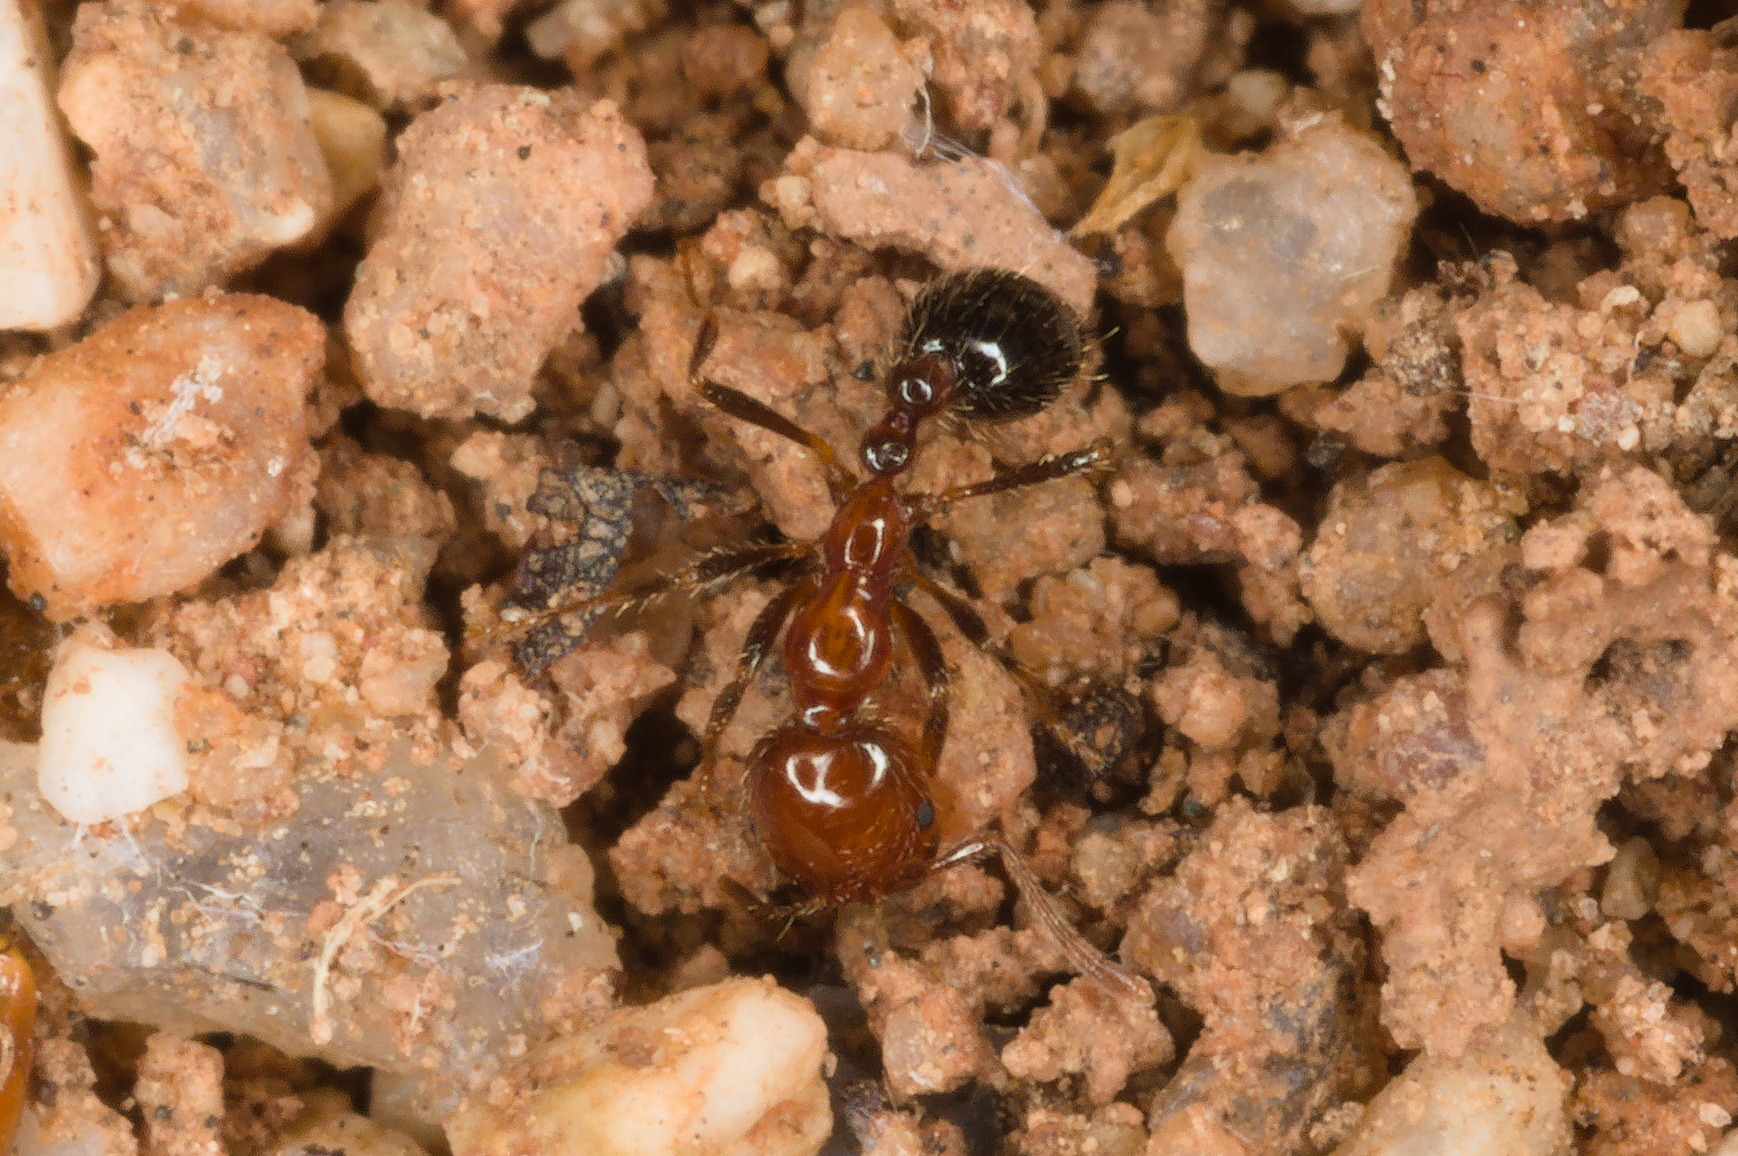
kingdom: Animalia
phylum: Arthropoda
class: Insecta
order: Hymenoptera
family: Formicidae
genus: Solenopsis
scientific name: Solenopsis xyloni
